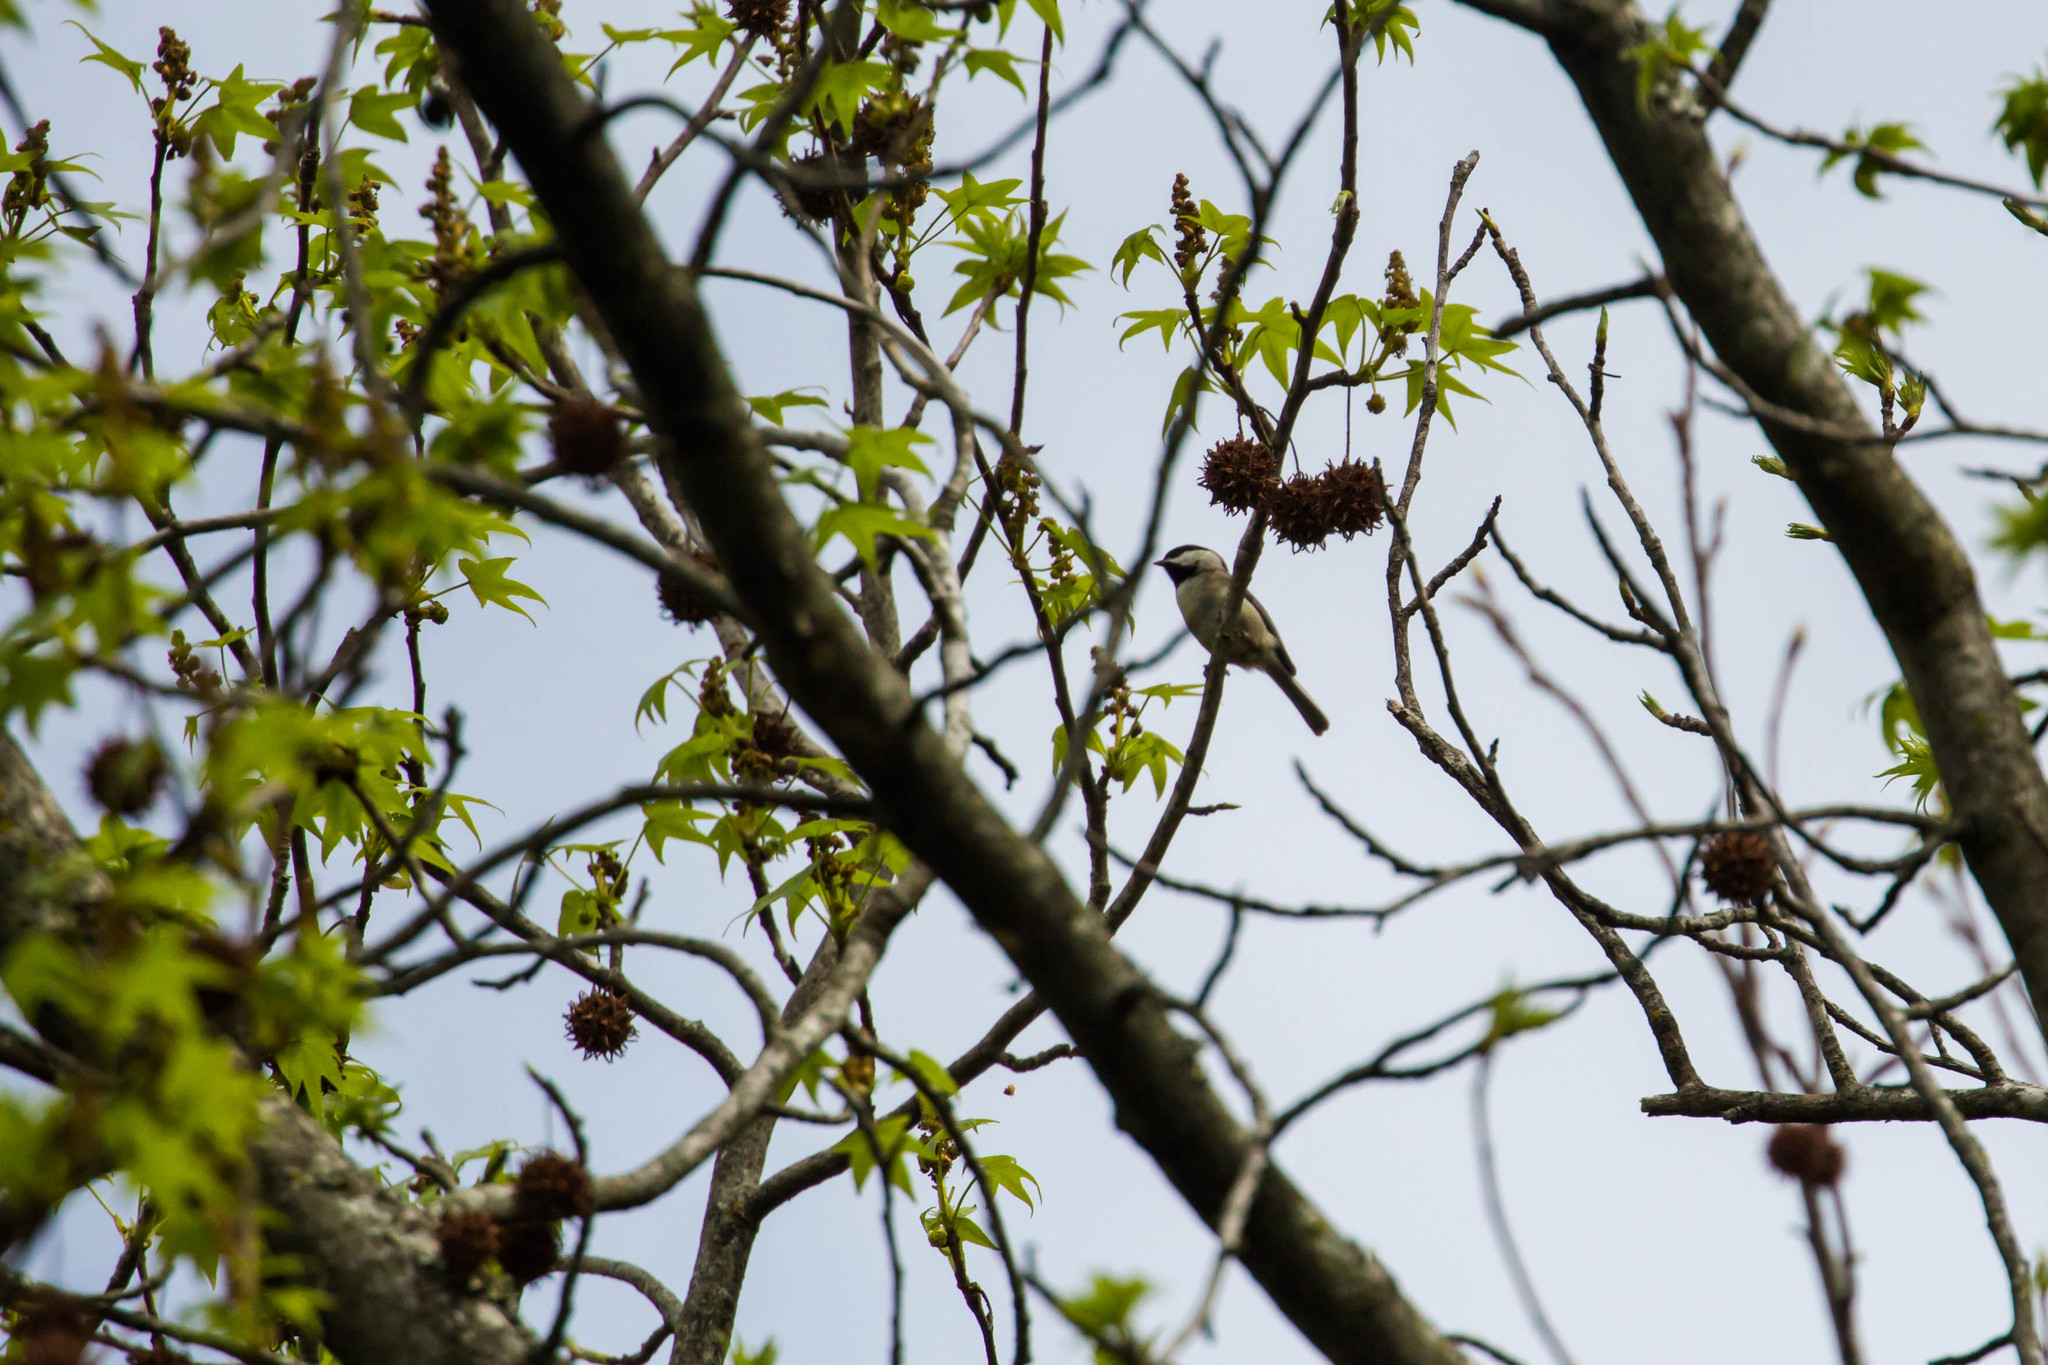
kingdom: Animalia
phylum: Chordata
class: Aves
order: Passeriformes
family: Paridae
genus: Poecile
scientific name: Poecile carolinensis
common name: Carolina chickadee
